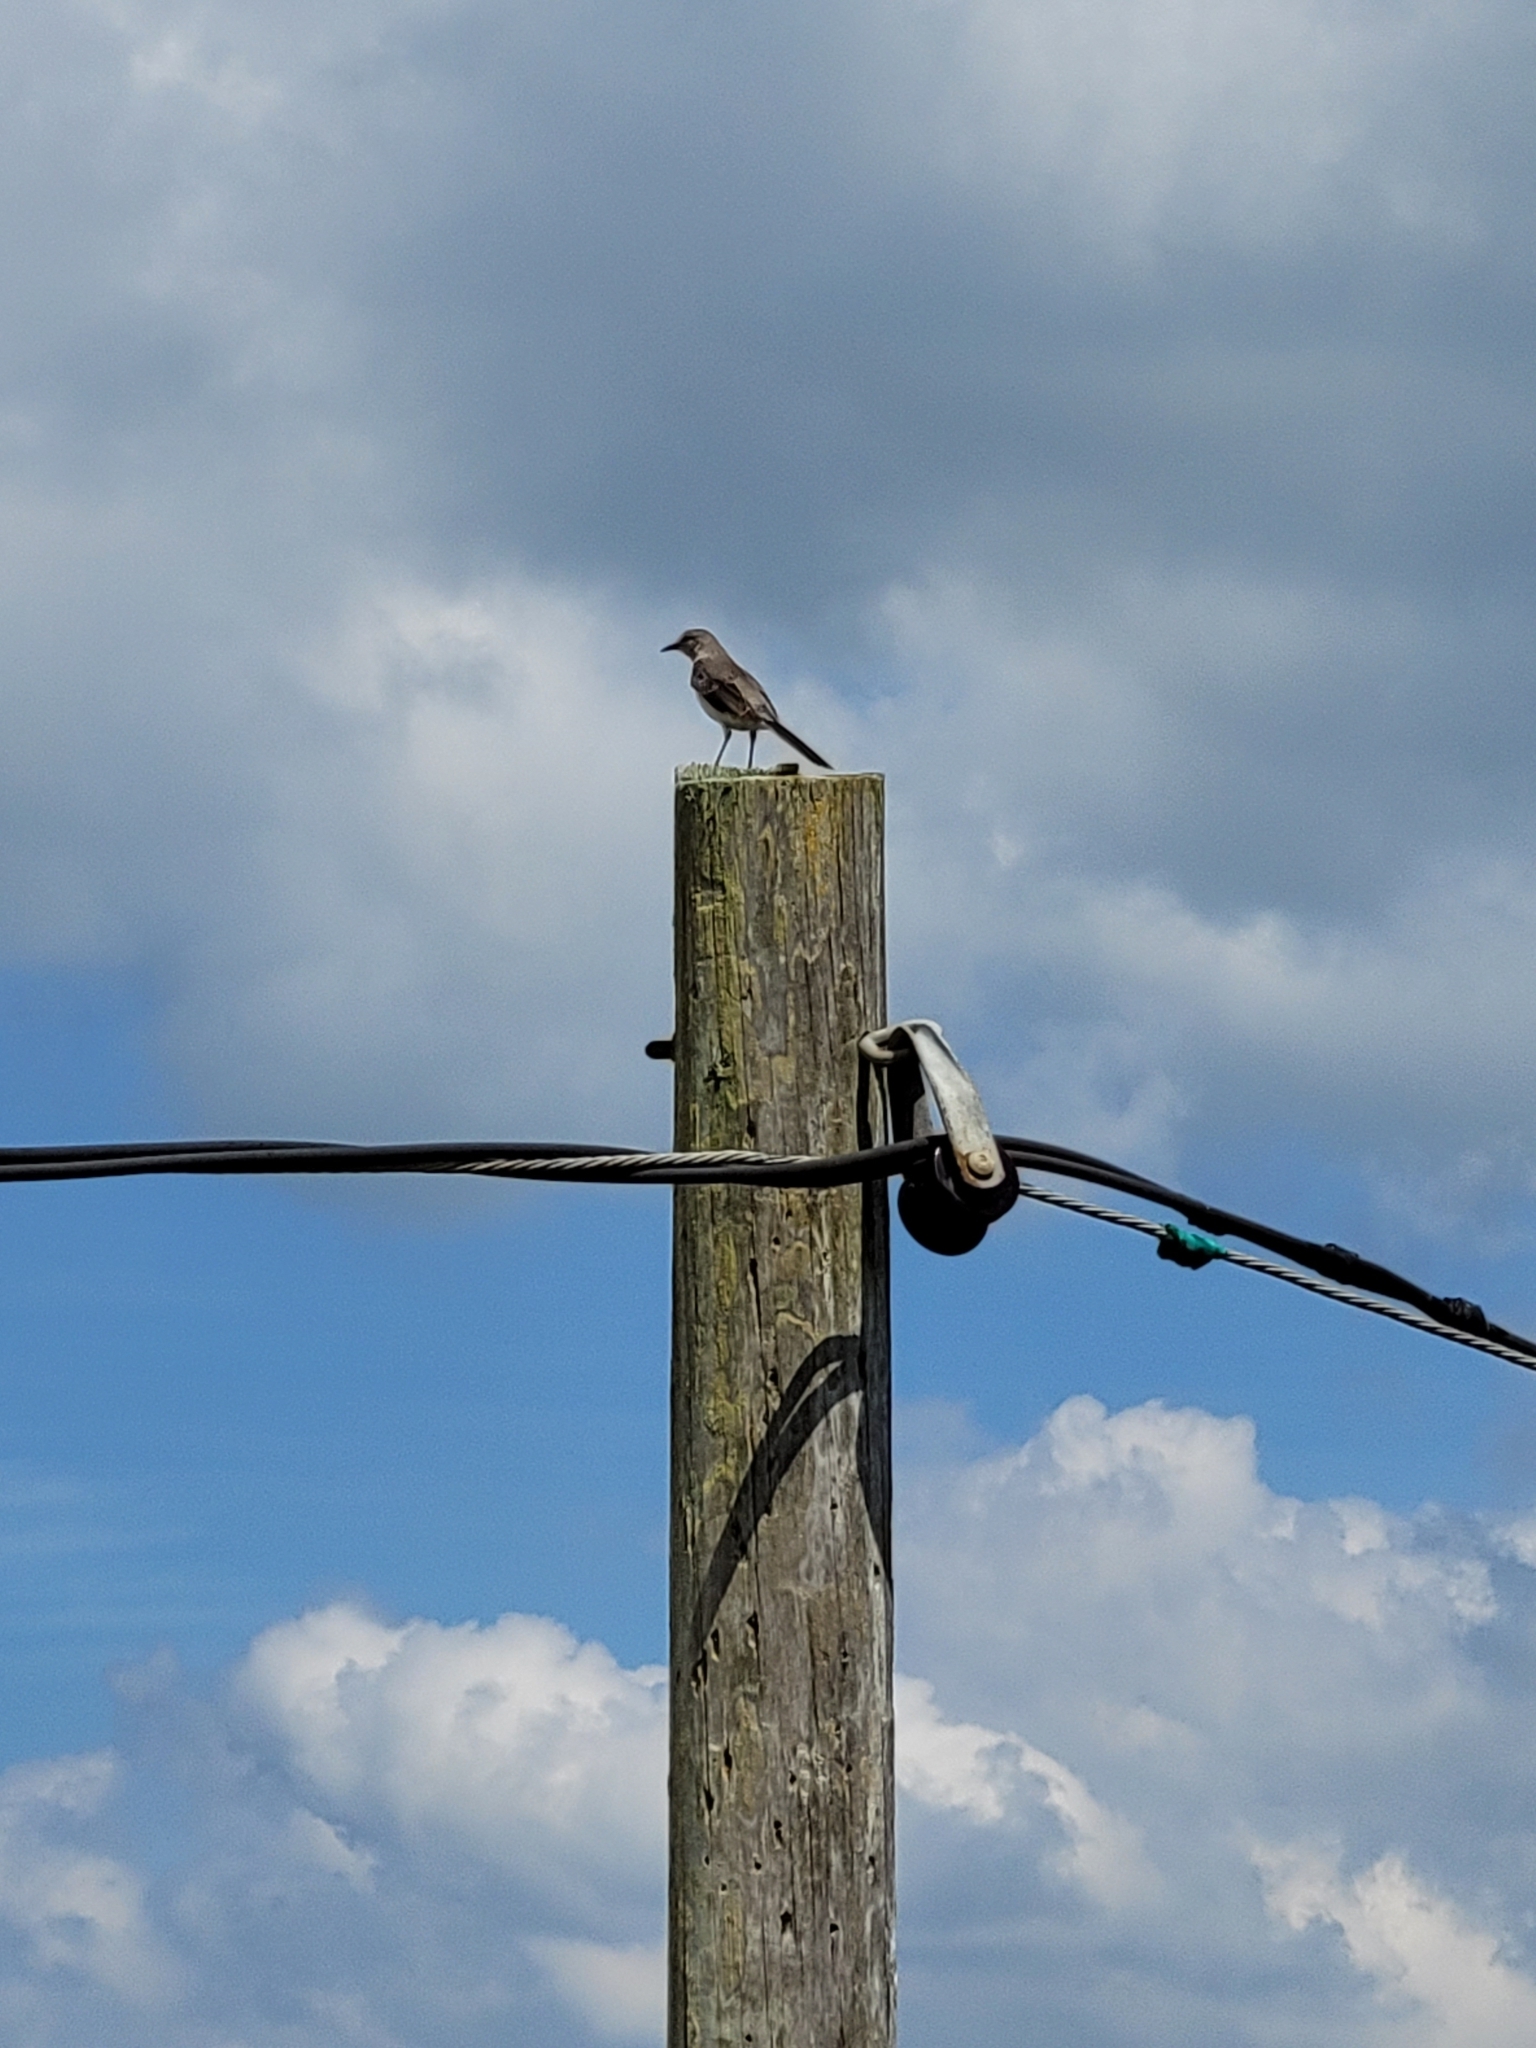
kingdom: Animalia
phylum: Chordata
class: Aves
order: Passeriformes
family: Mimidae
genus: Mimus
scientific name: Mimus polyglottos
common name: Northern mockingbird
